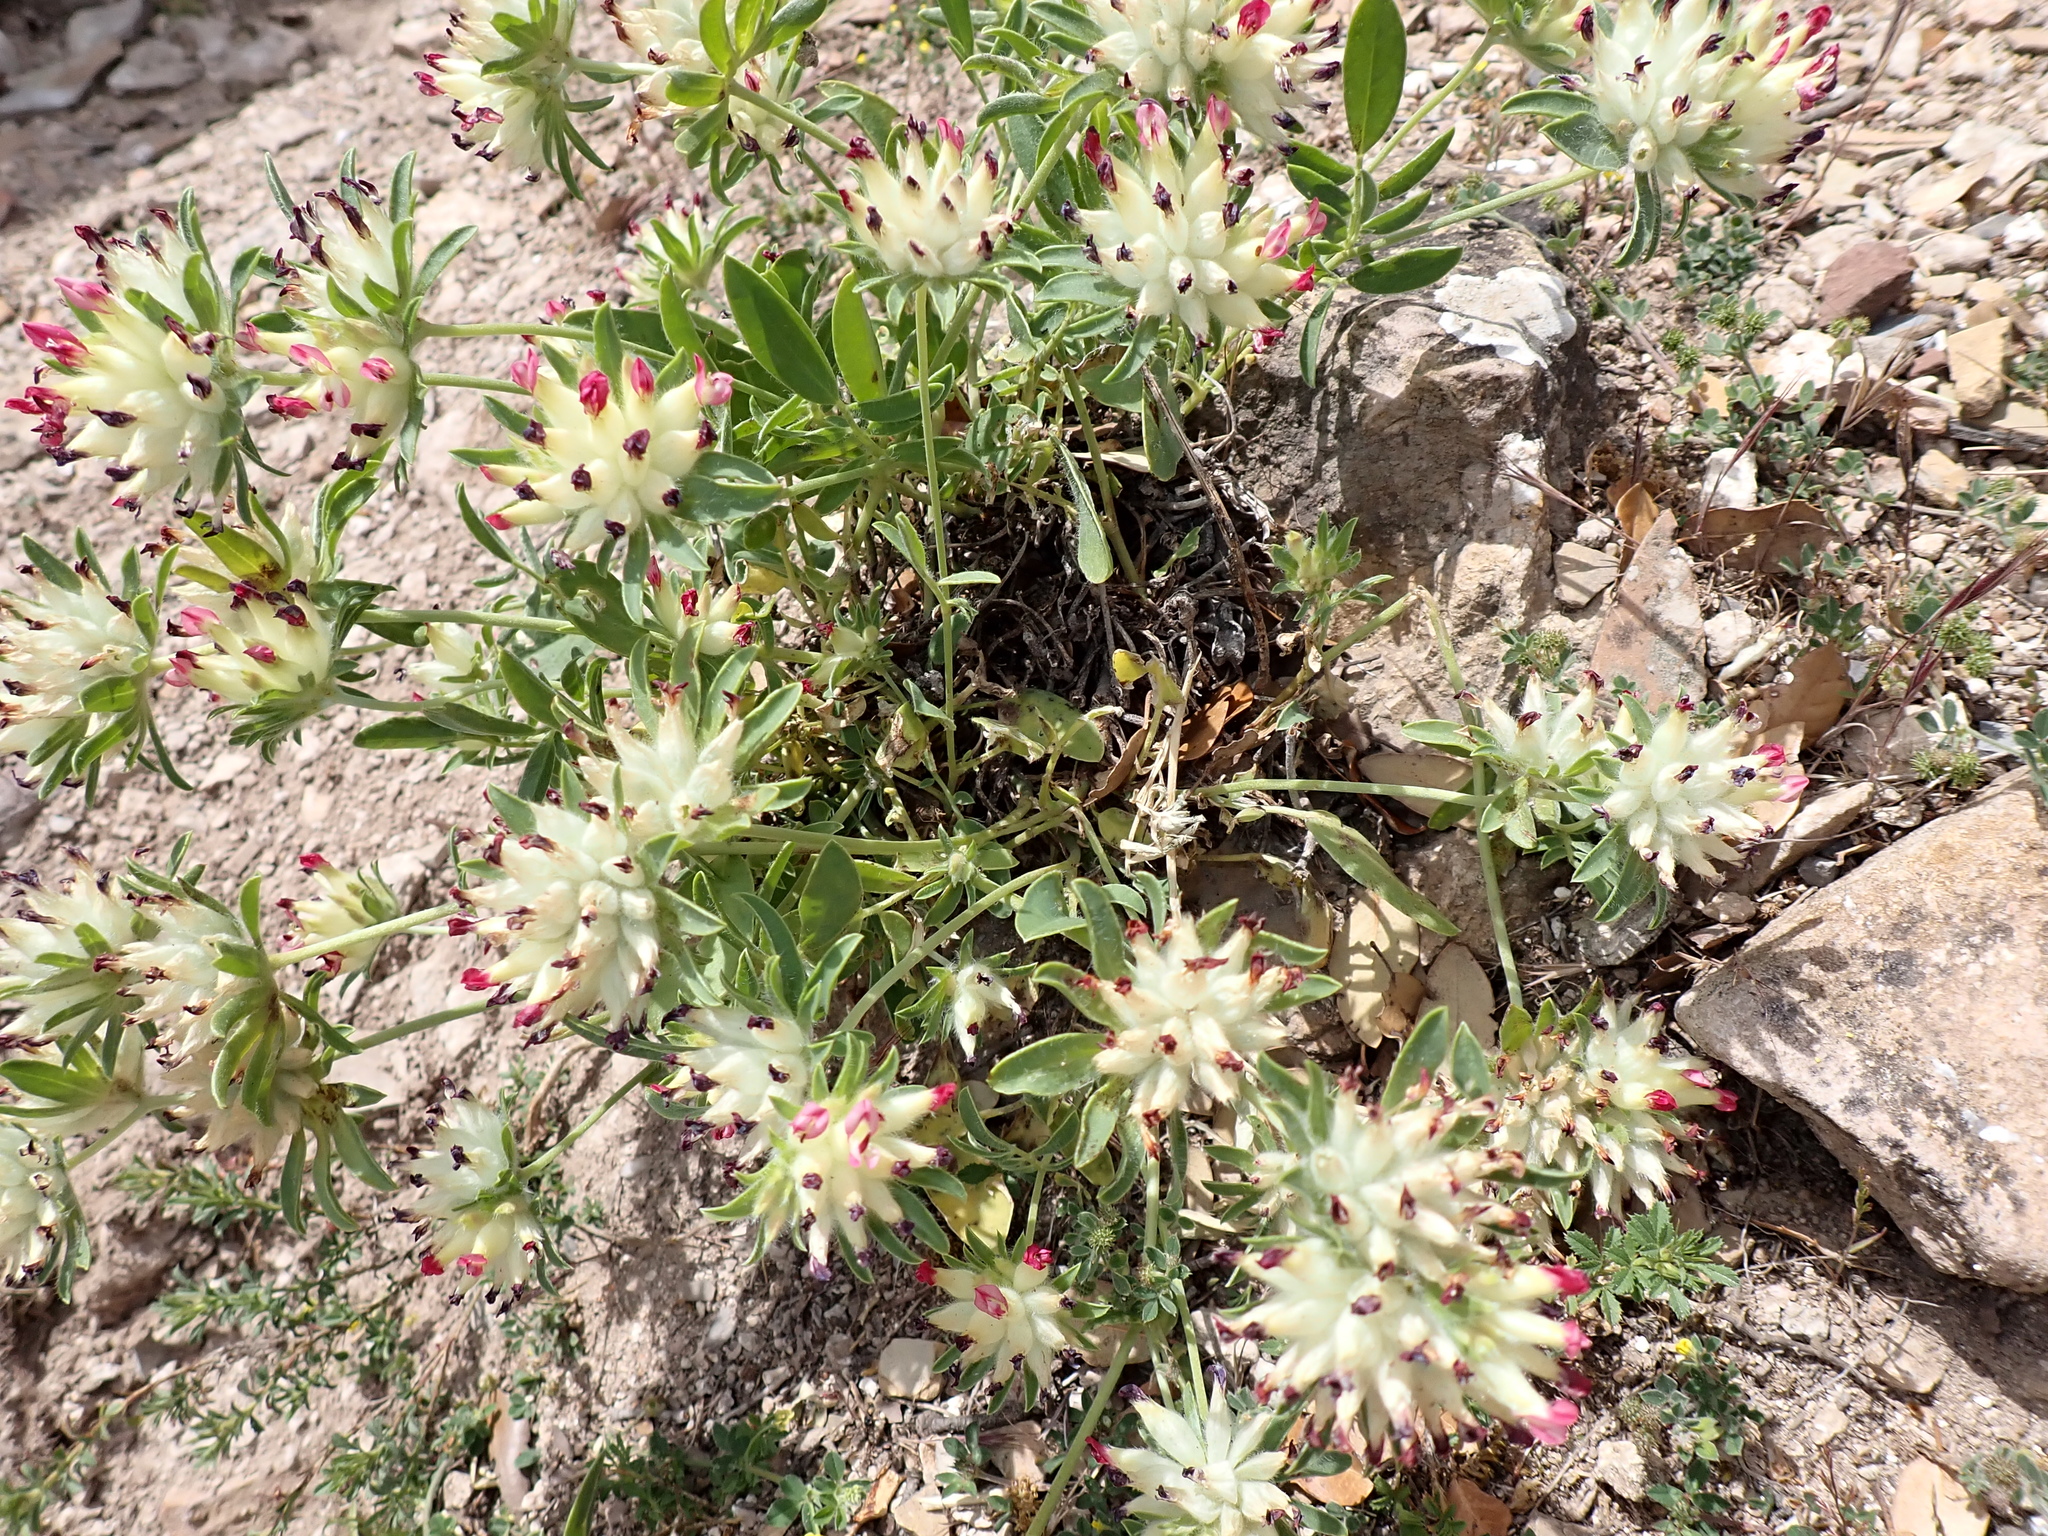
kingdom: Plantae
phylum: Tracheophyta
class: Magnoliopsida
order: Fabales
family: Fabaceae
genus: Anthyllis
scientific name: Anthyllis vulneraria
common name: Kidney vetch
